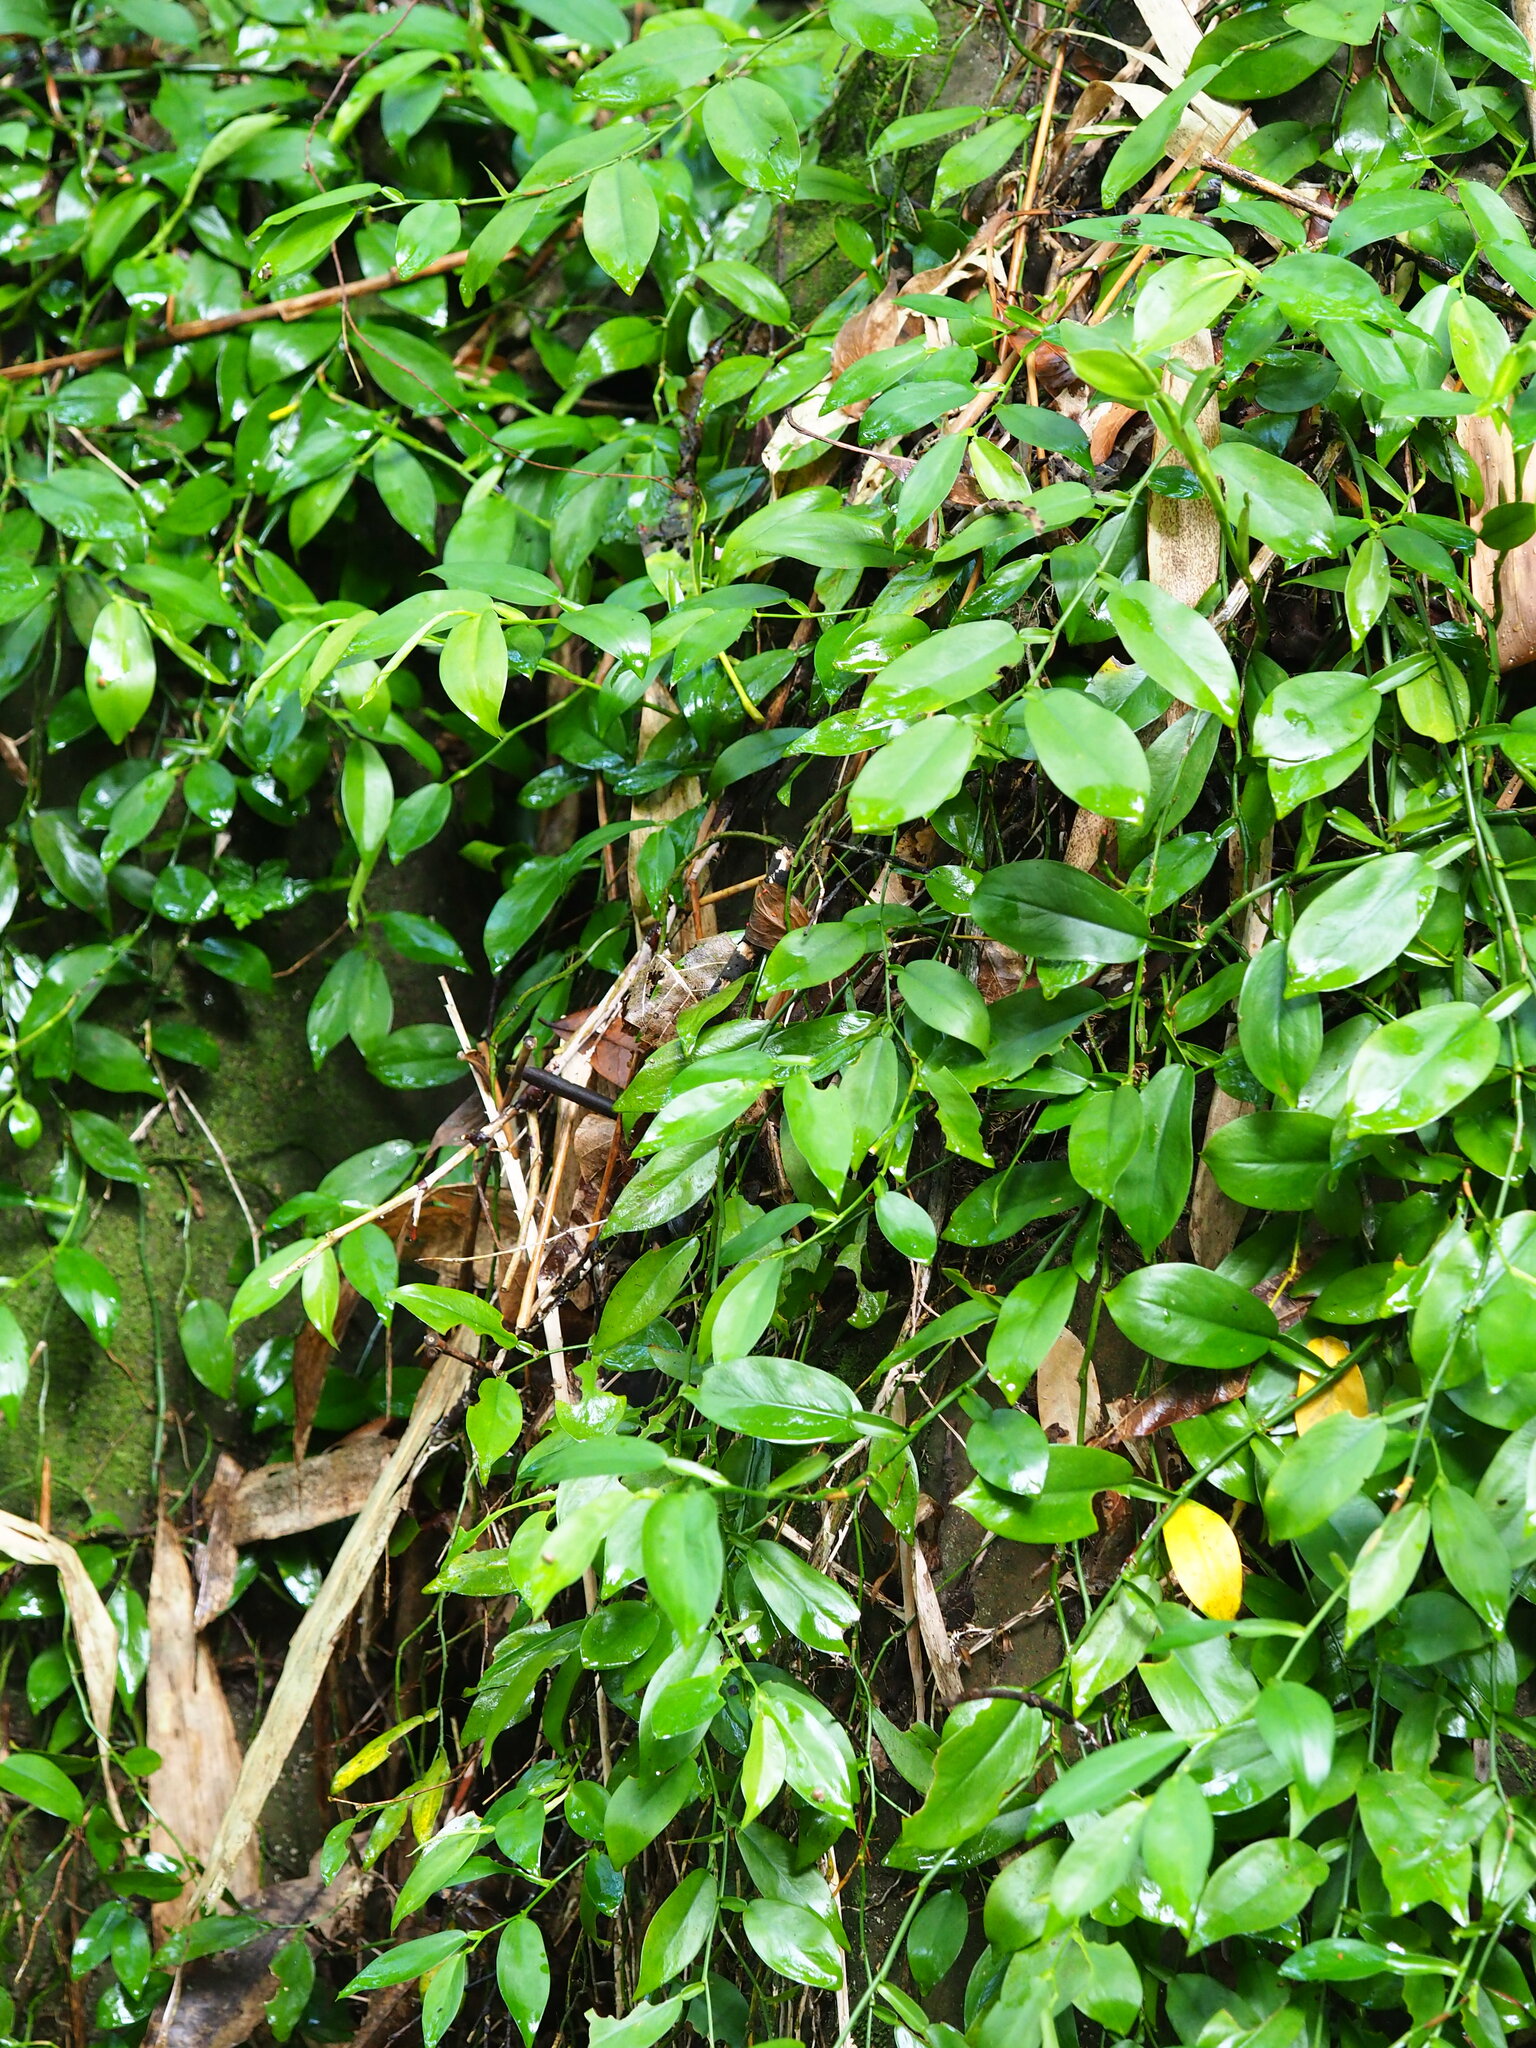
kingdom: Plantae
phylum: Tracheophyta
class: Liliopsida
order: Alismatales
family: Araceae
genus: Pothos
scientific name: Pothos chinensis
